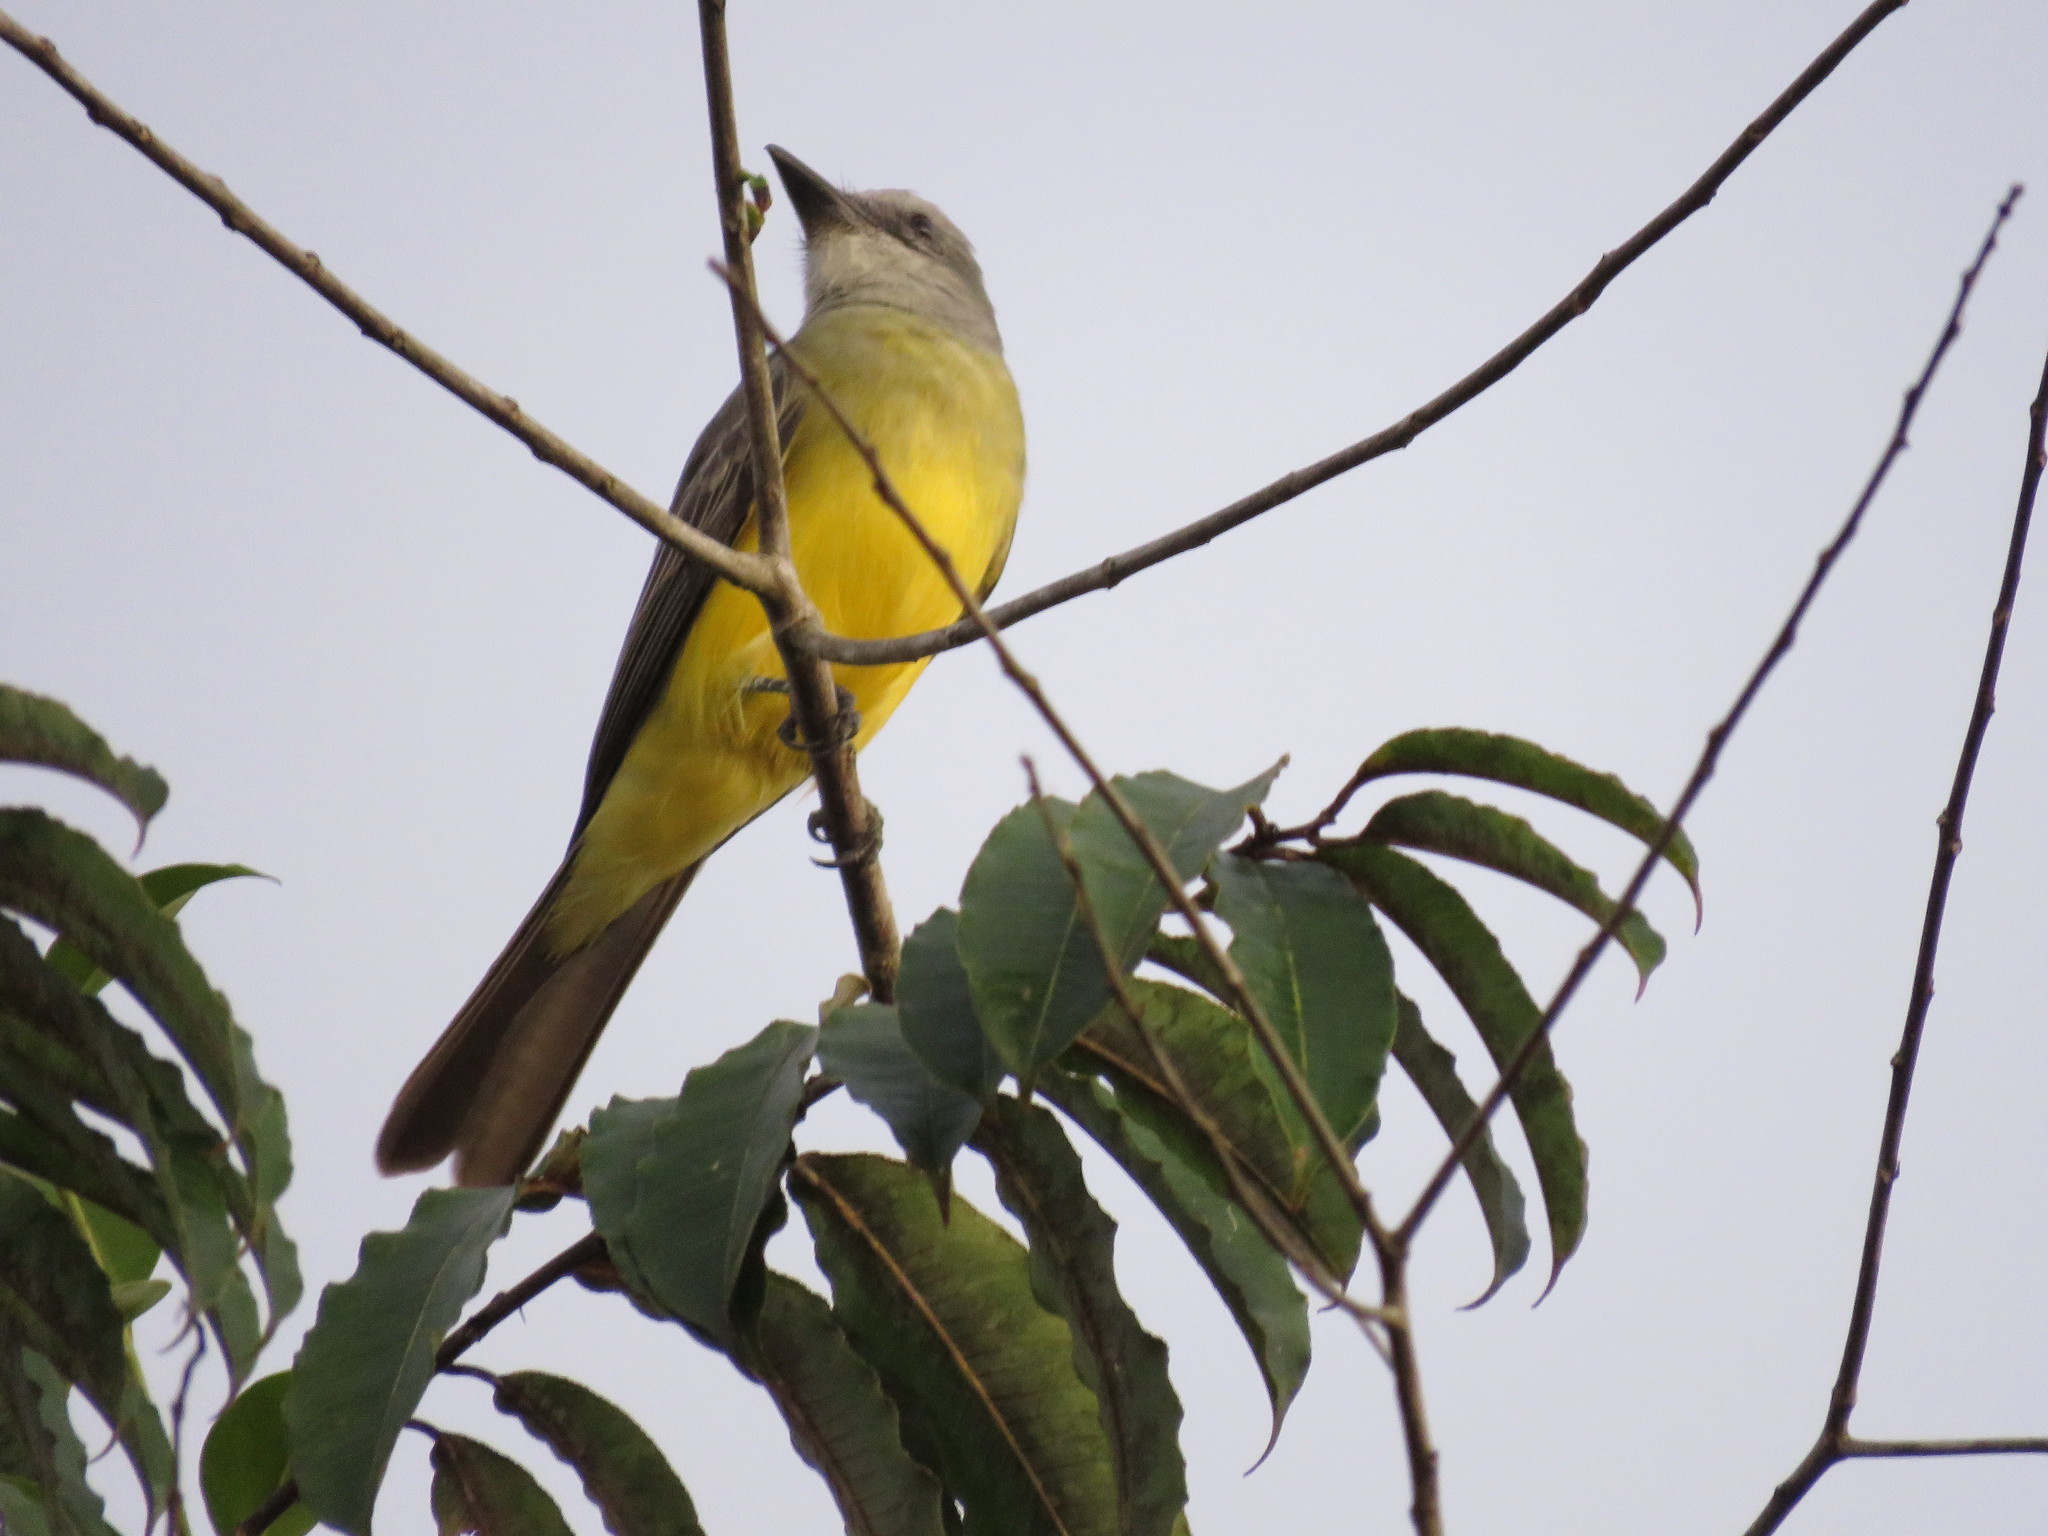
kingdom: Animalia
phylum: Chordata
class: Aves
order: Passeriformes
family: Tyrannidae
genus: Tyrannus
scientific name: Tyrannus melancholicus
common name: Tropical kingbird
